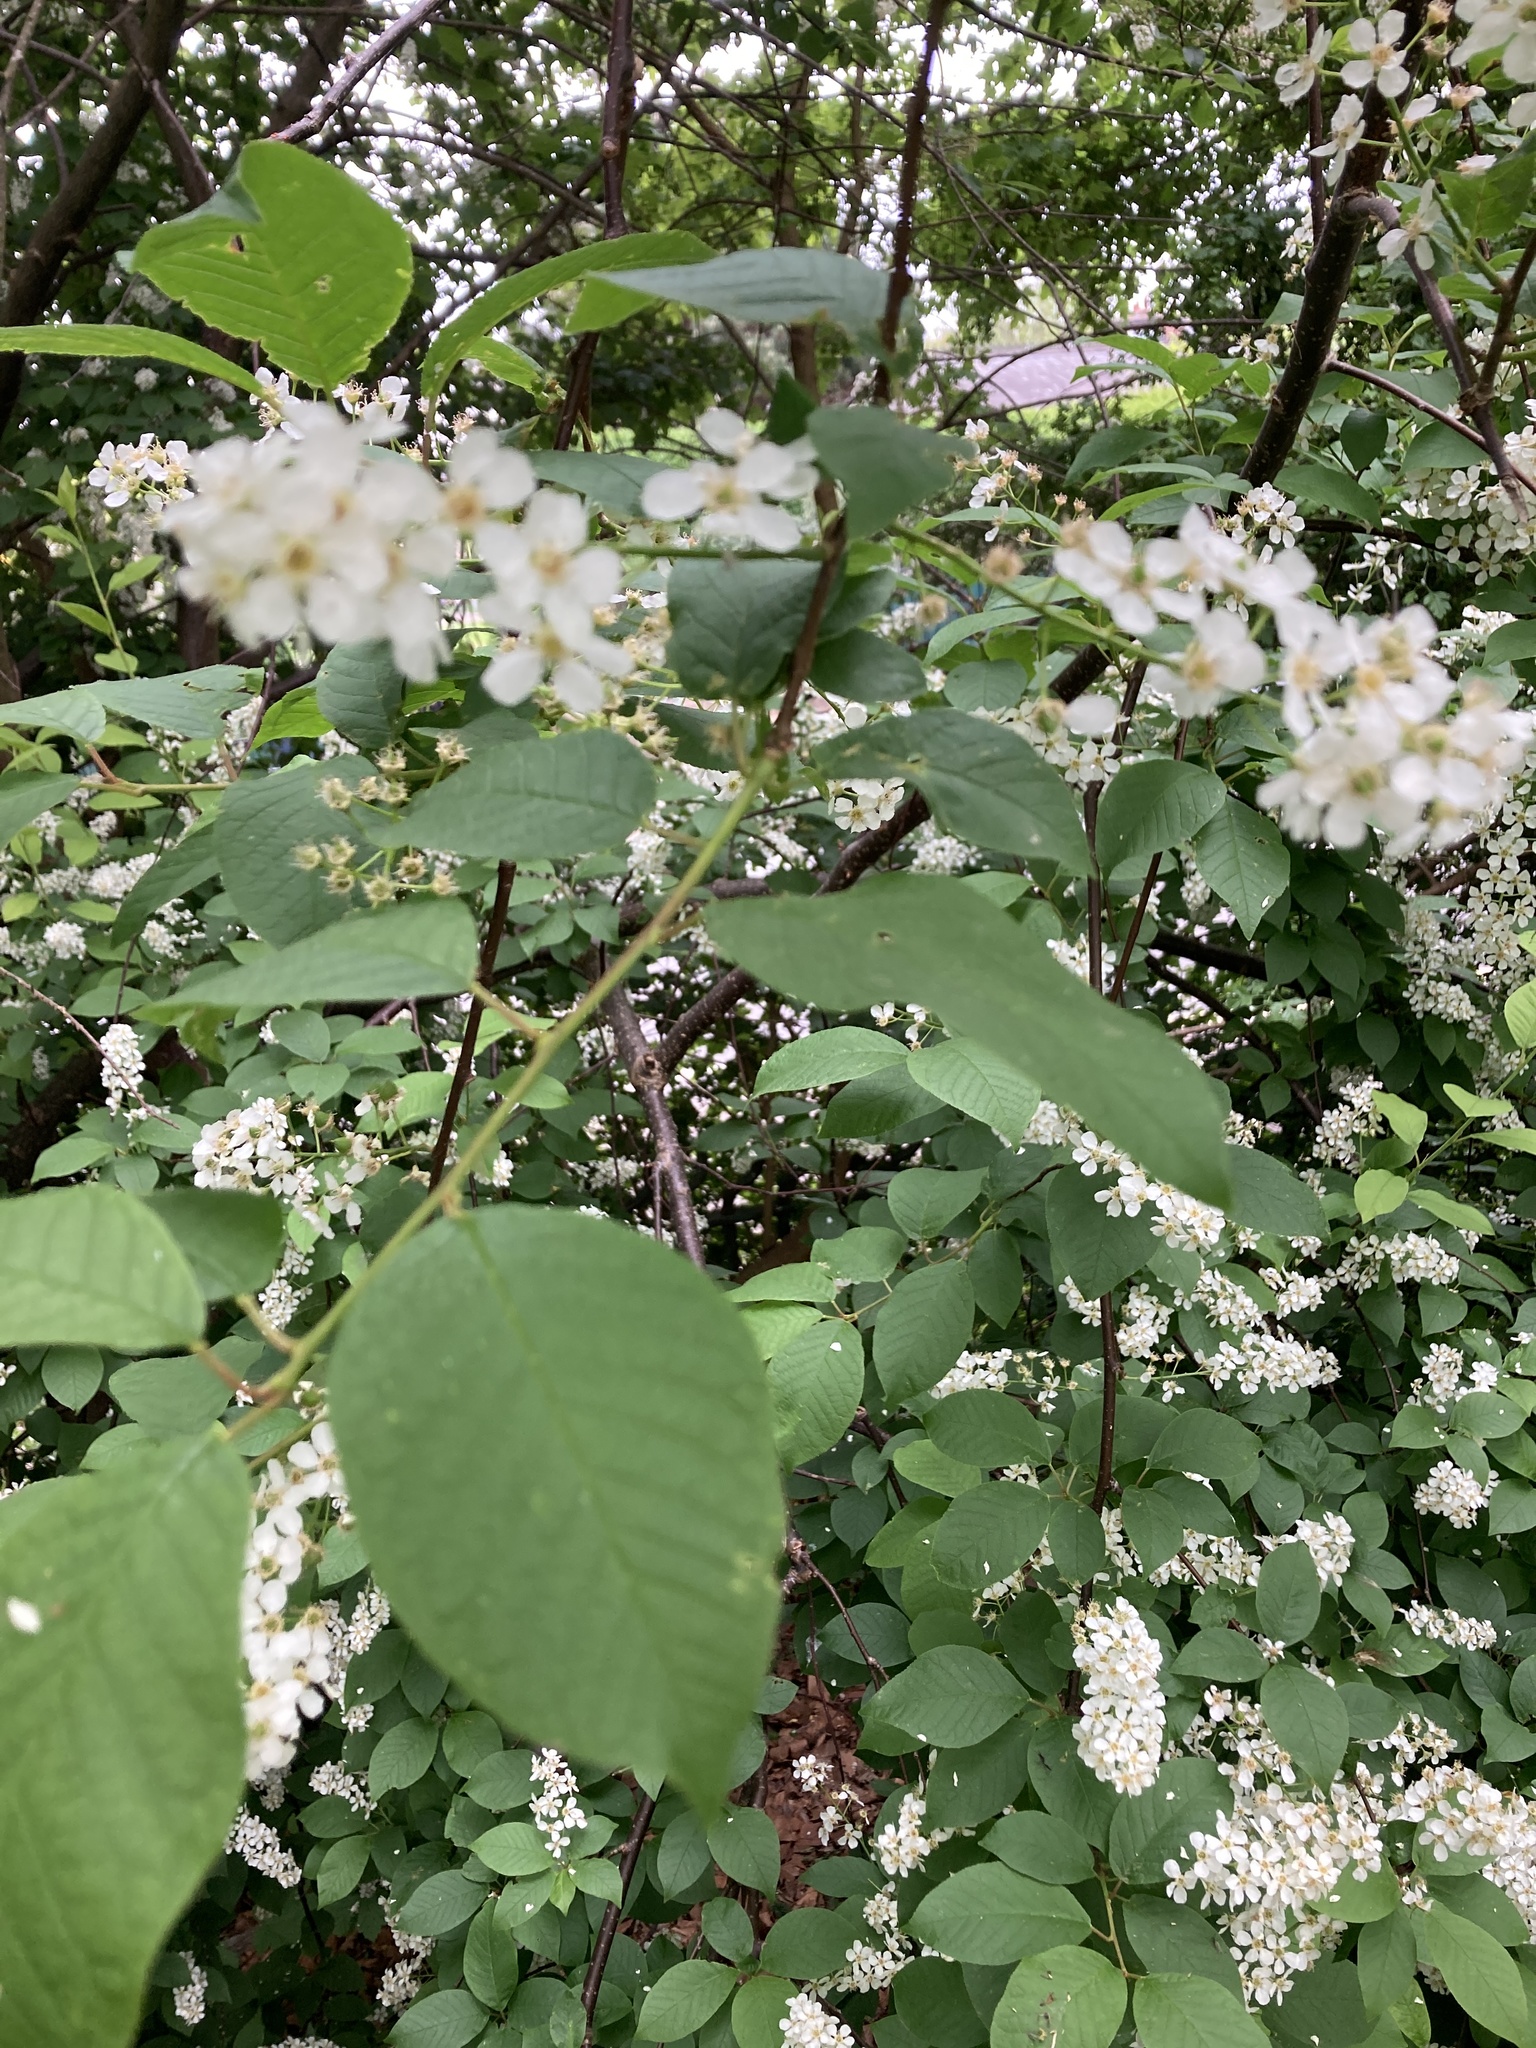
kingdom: Plantae
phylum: Tracheophyta
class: Magnoliopsida
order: Rosales
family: Rosaceae
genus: Prunus
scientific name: Prunus padus
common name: Bird cherry
